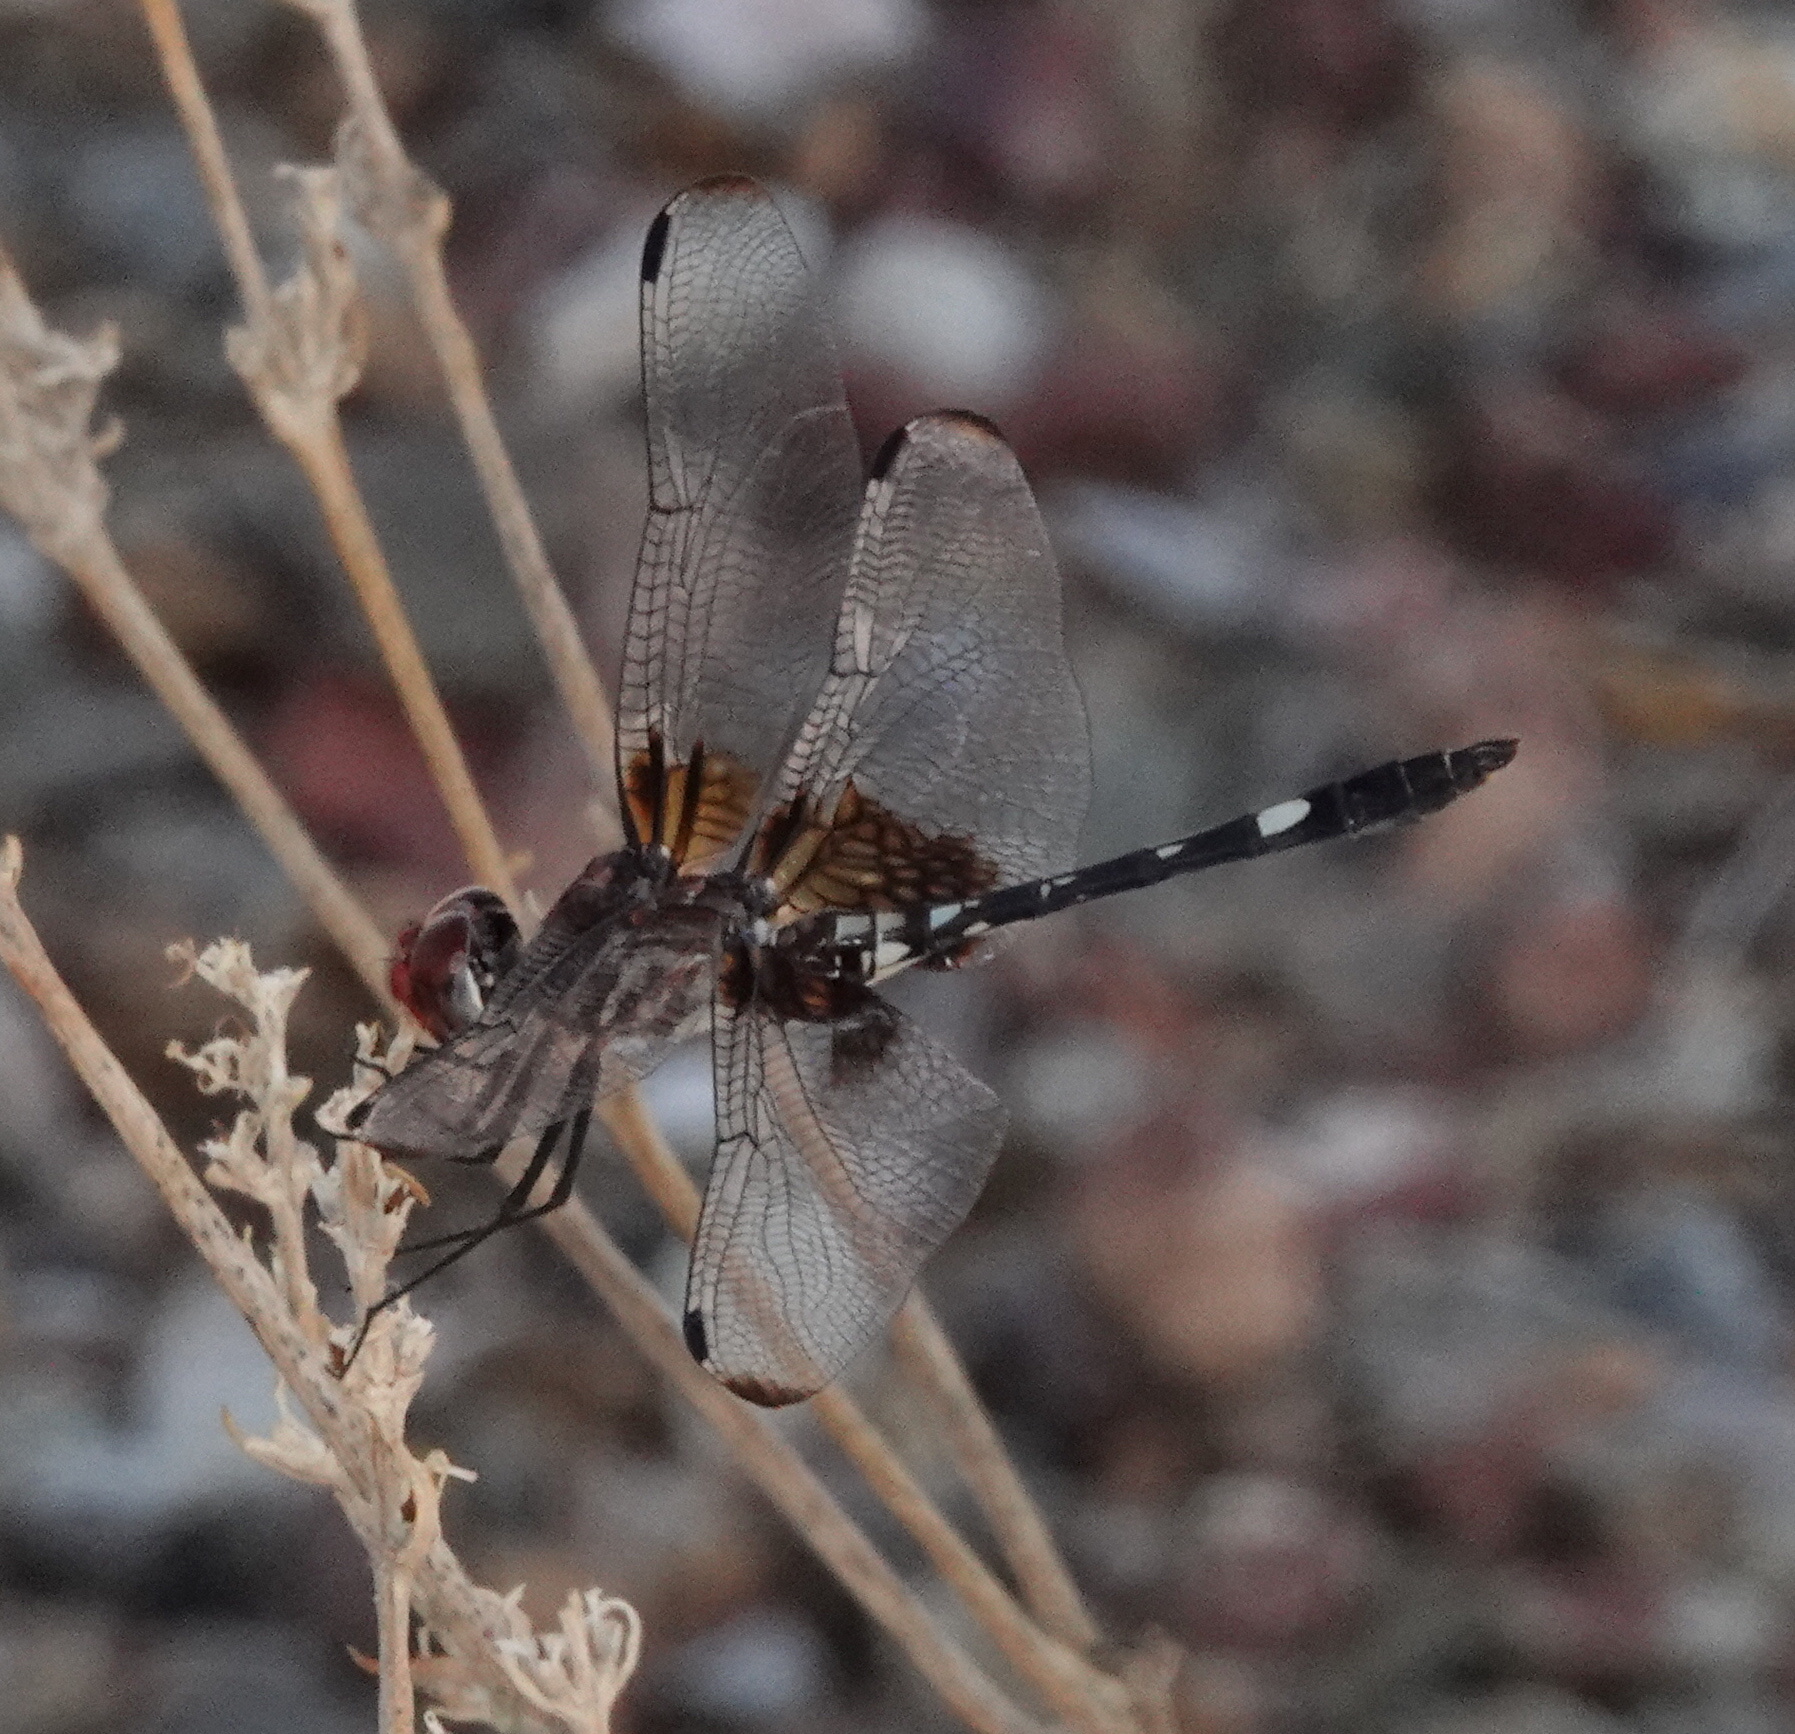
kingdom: Animalia
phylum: Arthropoda
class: Insecta
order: Odonata
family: Libellulidae
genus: Dythemis
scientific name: Dythemis fugax
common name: Checkered setwing
